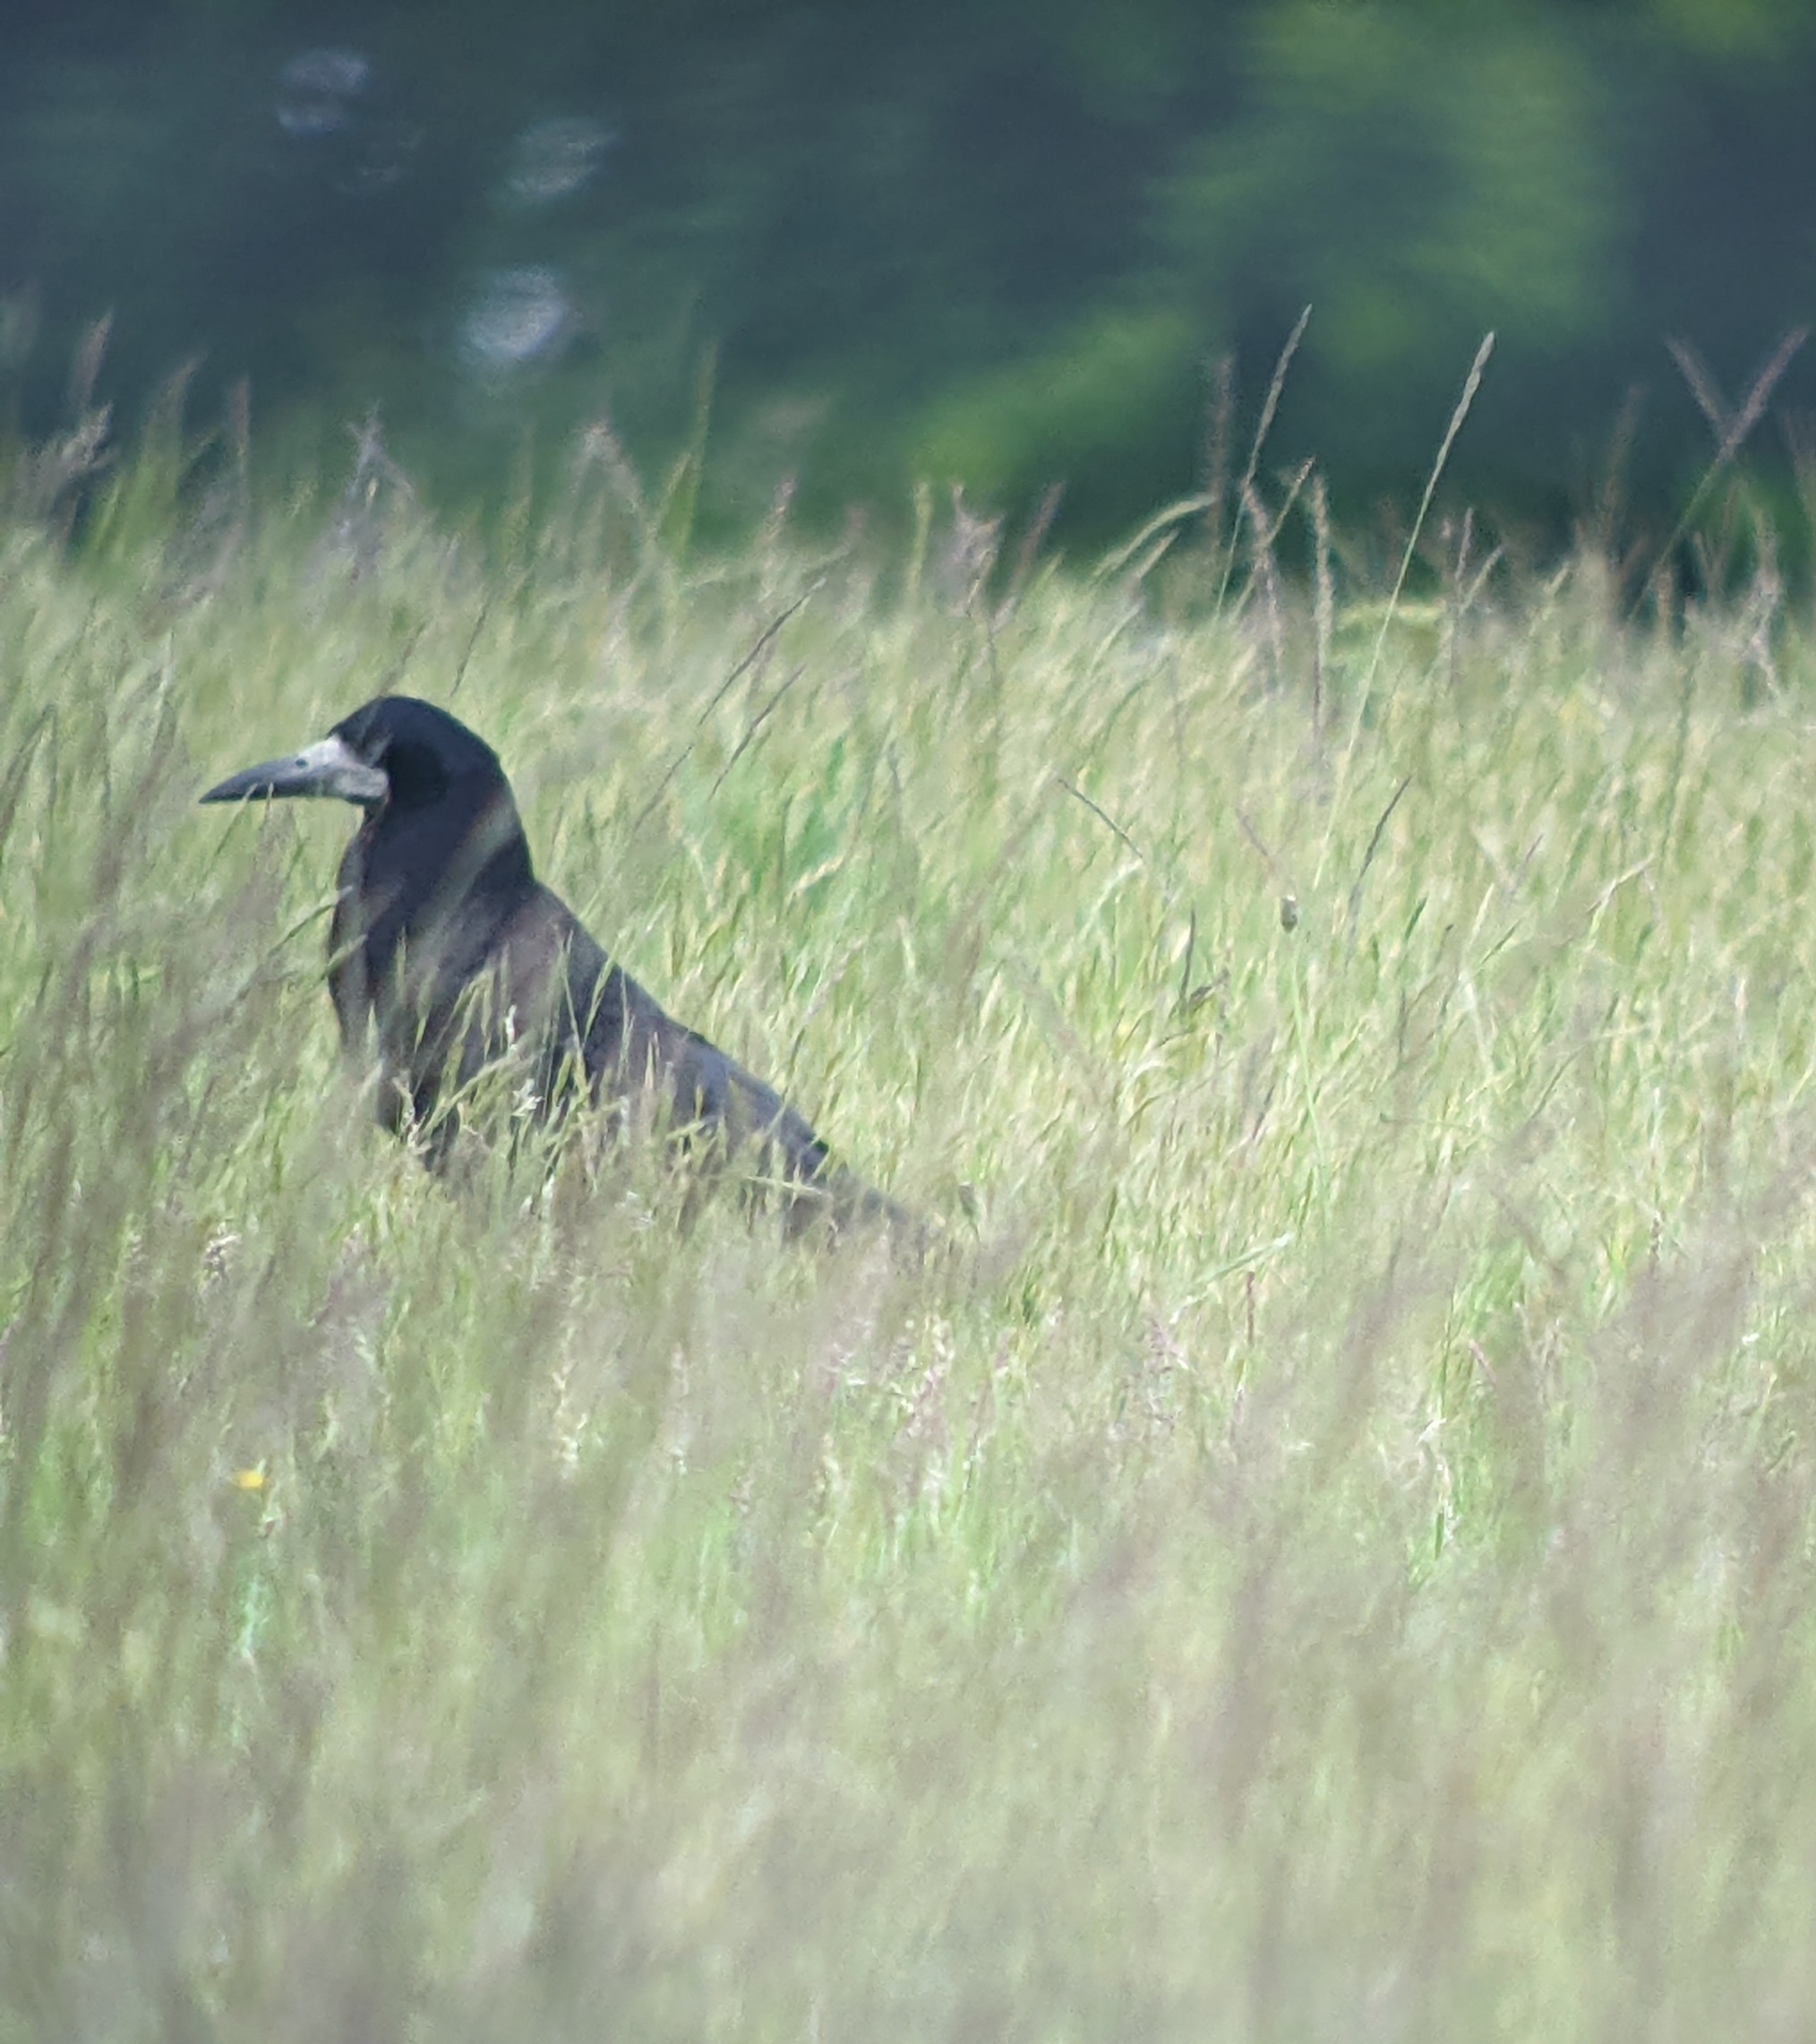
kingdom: Animalia
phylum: Chordata
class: Aves
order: Passeriformes
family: Corvidae
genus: Corvus
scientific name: Corvus frugilegus
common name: Rook
